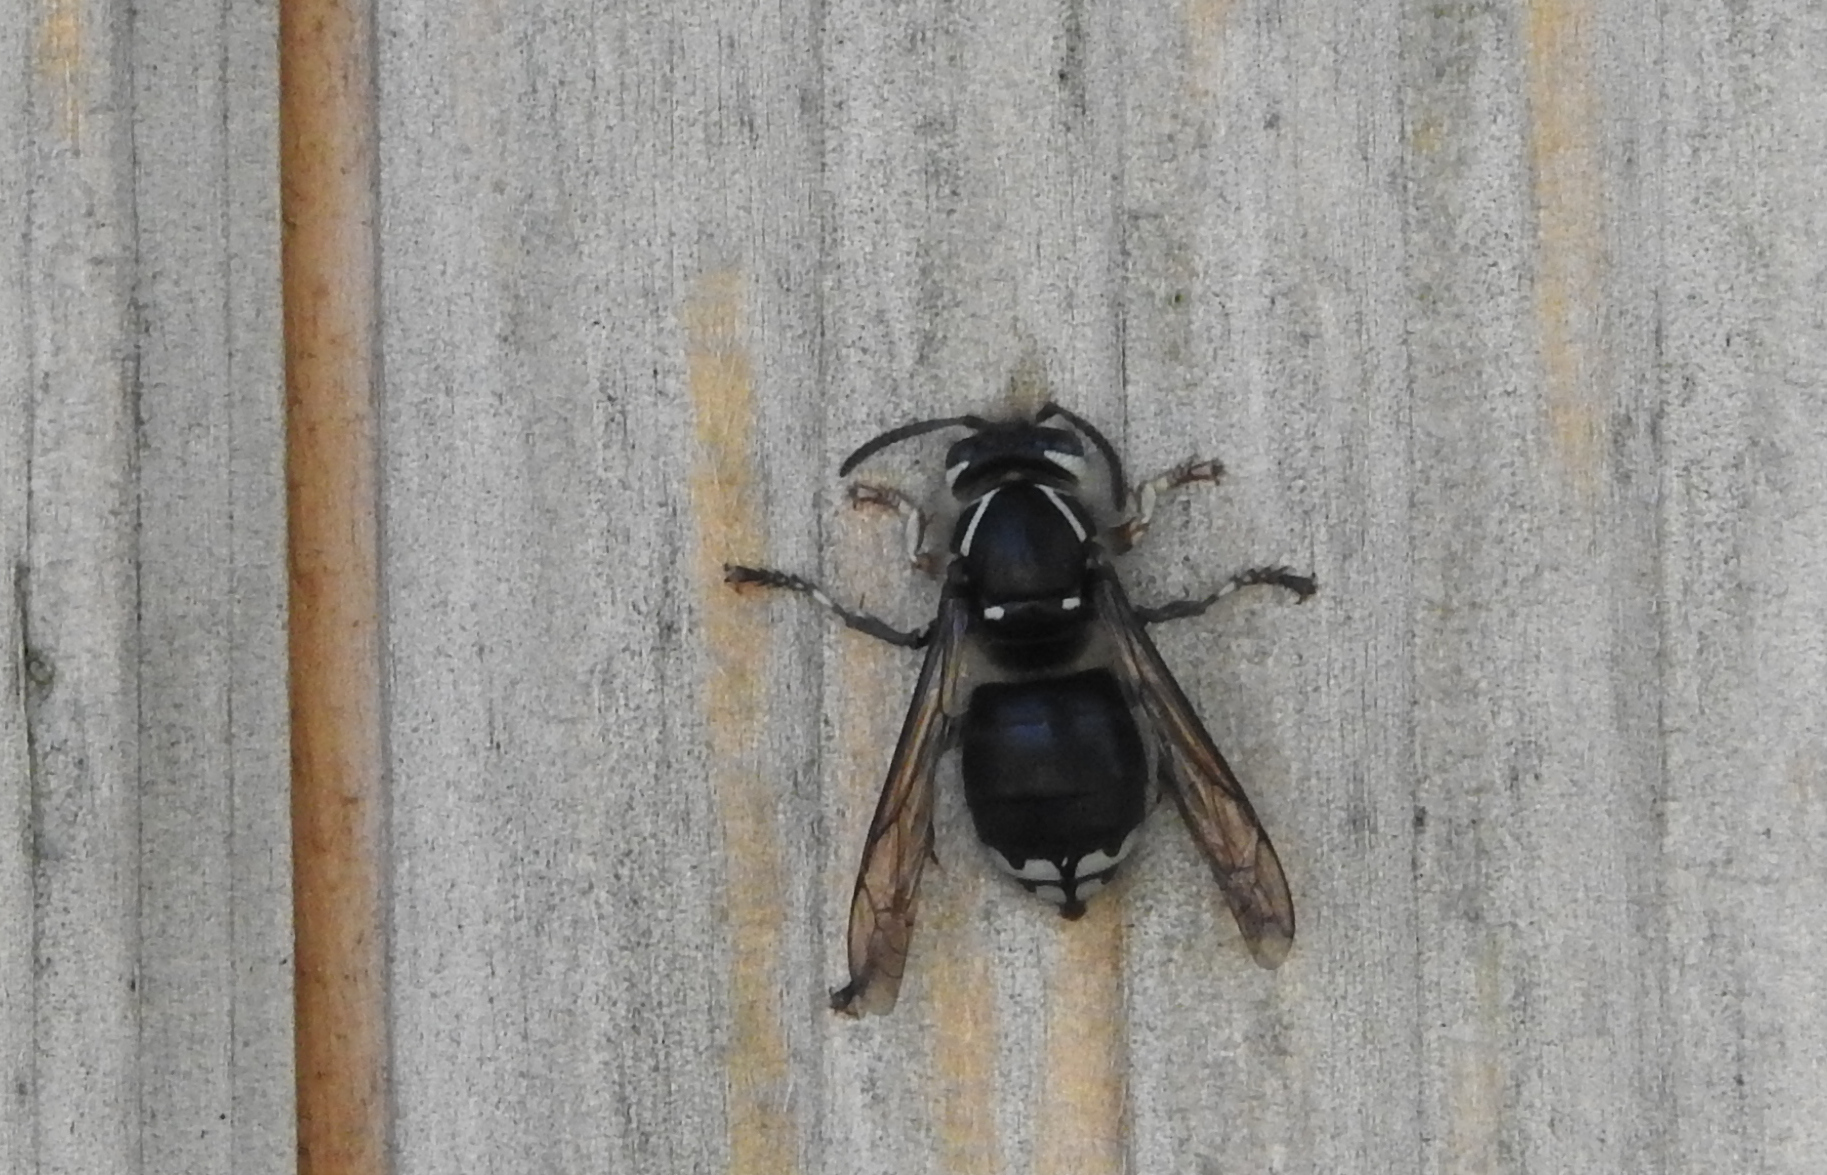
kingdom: Animalia
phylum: Arthropoda
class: Insecta
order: Hymenoptera
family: Vespidae
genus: Dolichovespula
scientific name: Dolichovespula maculata
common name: Bald-faced hornet
